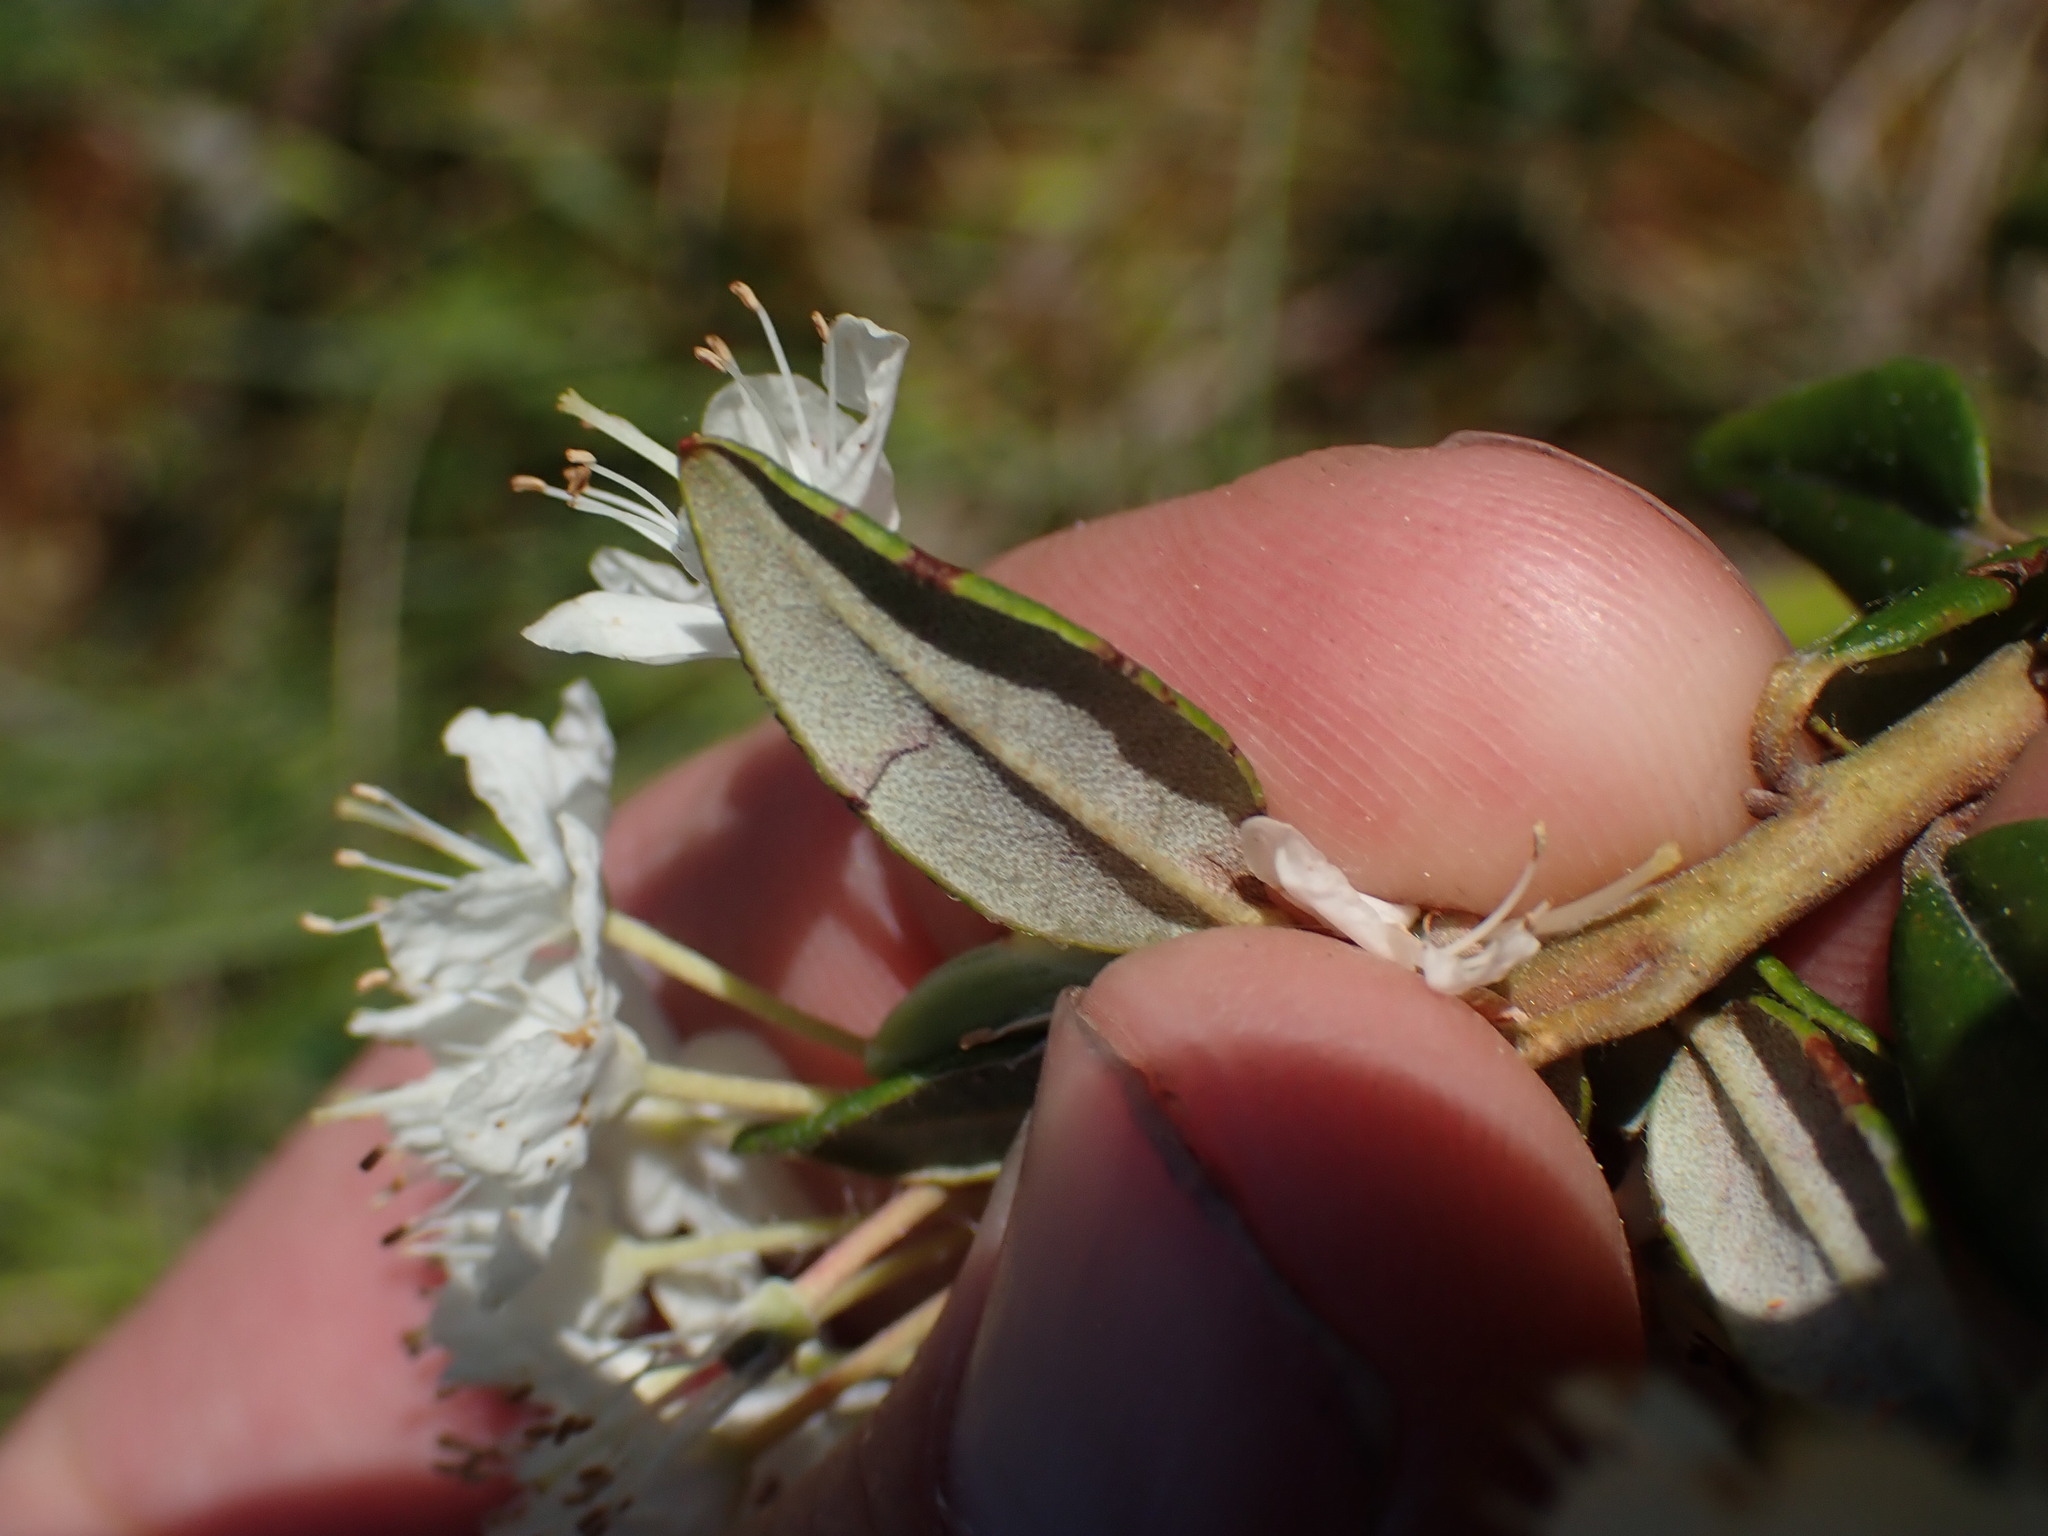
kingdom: Plantae
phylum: Tracheophyta
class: Magnoliopsida
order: Ericales
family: Ericaceae
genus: Rhododendron
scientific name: Rhododendron columbianum
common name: Western labrador tea
